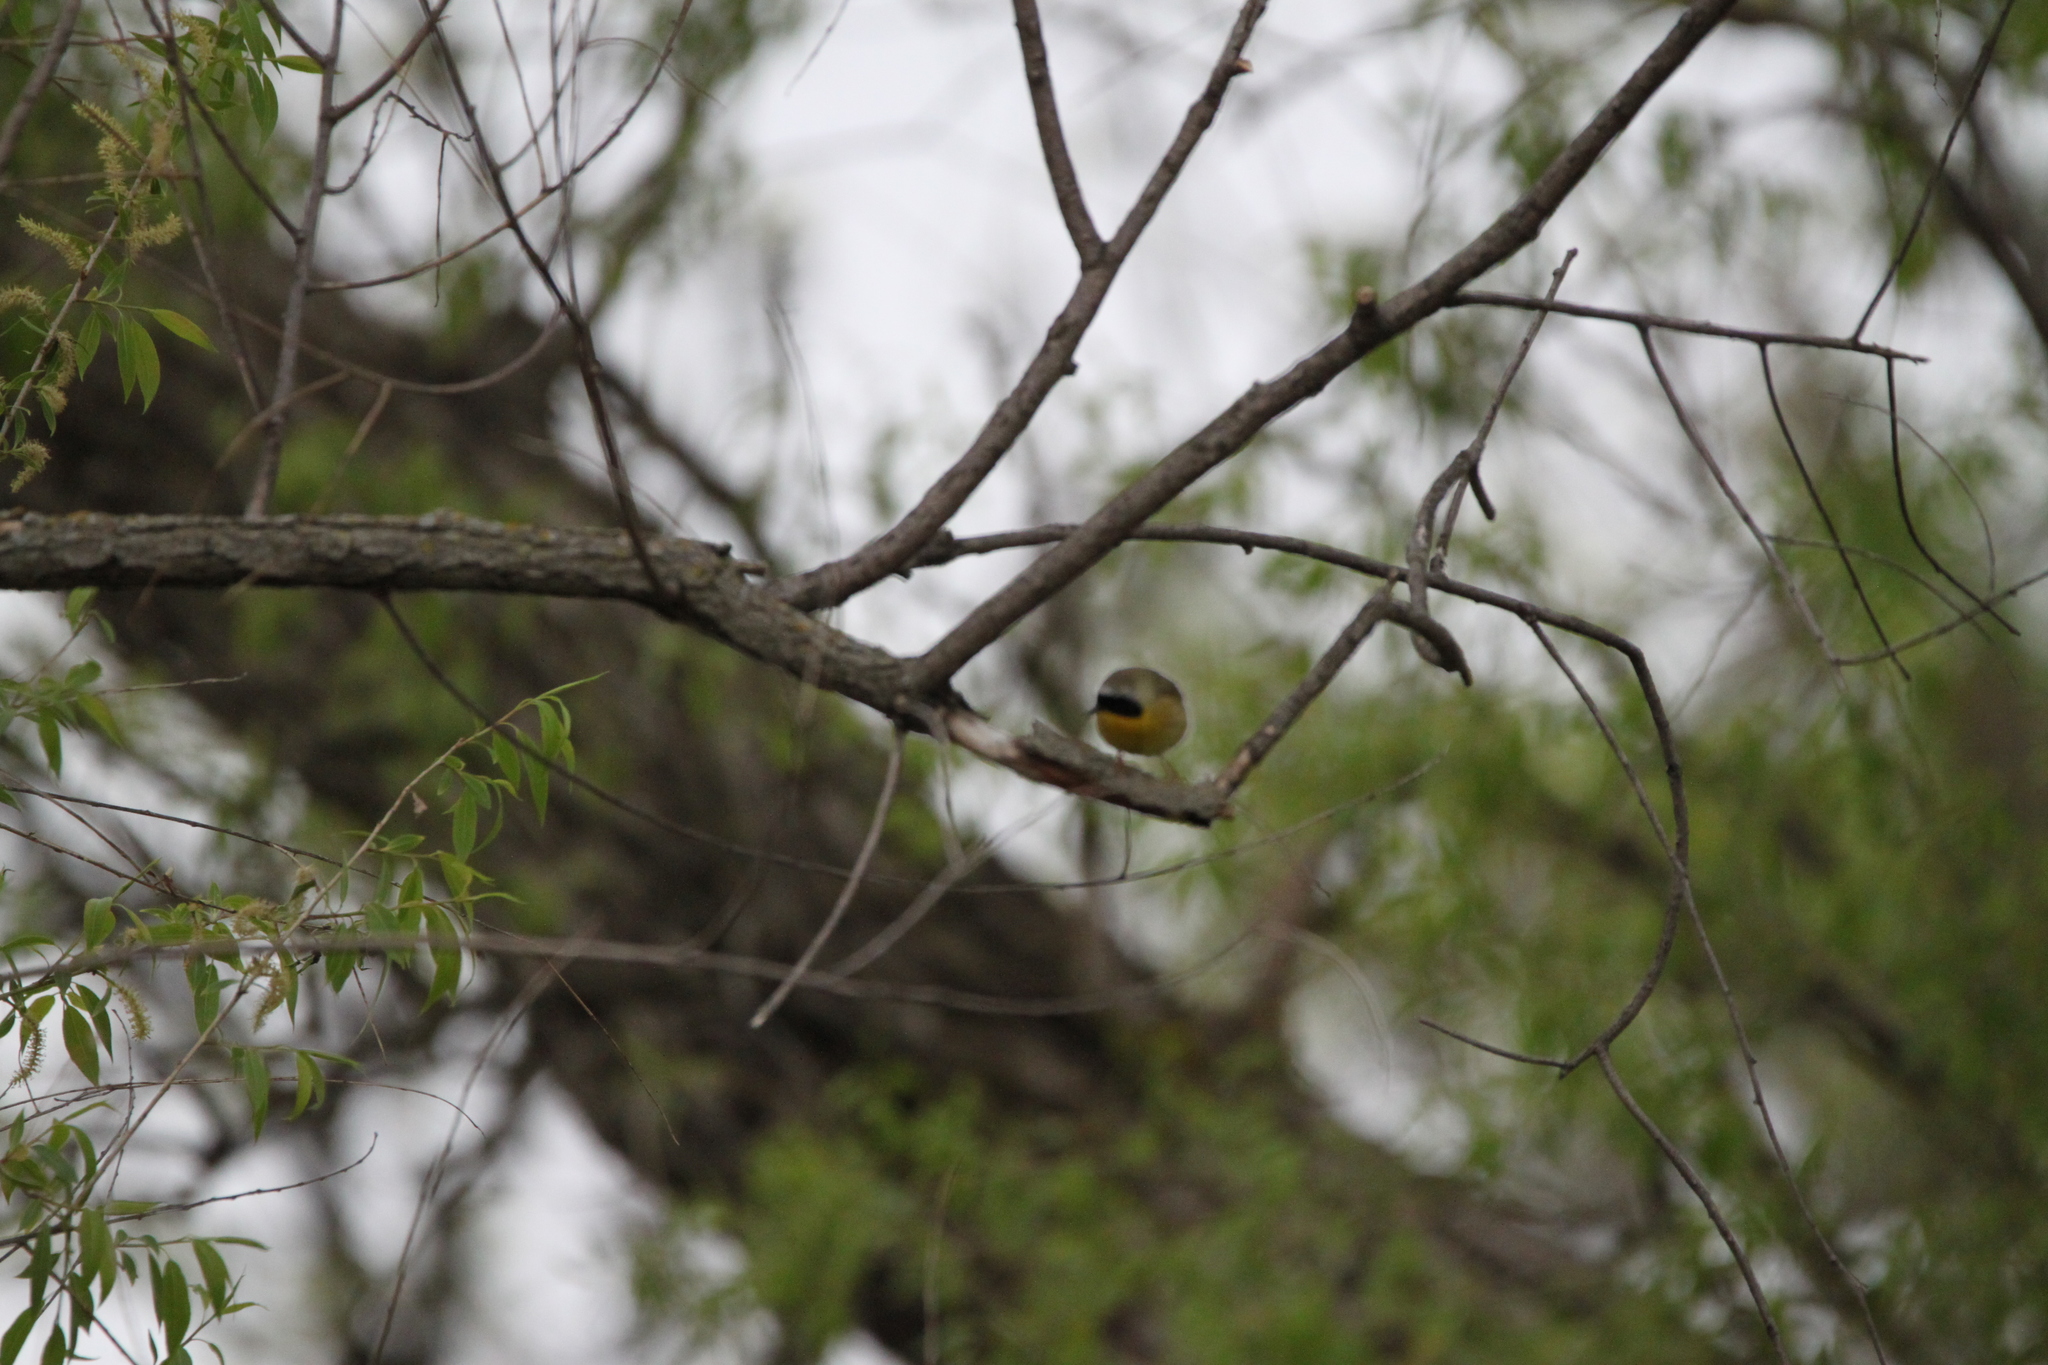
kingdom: Animalia
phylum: Chordata
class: Aves
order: Passeriformes
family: Parulidae
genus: Geothlypis
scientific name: Geothlypis trichas
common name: Common yellowthroat
